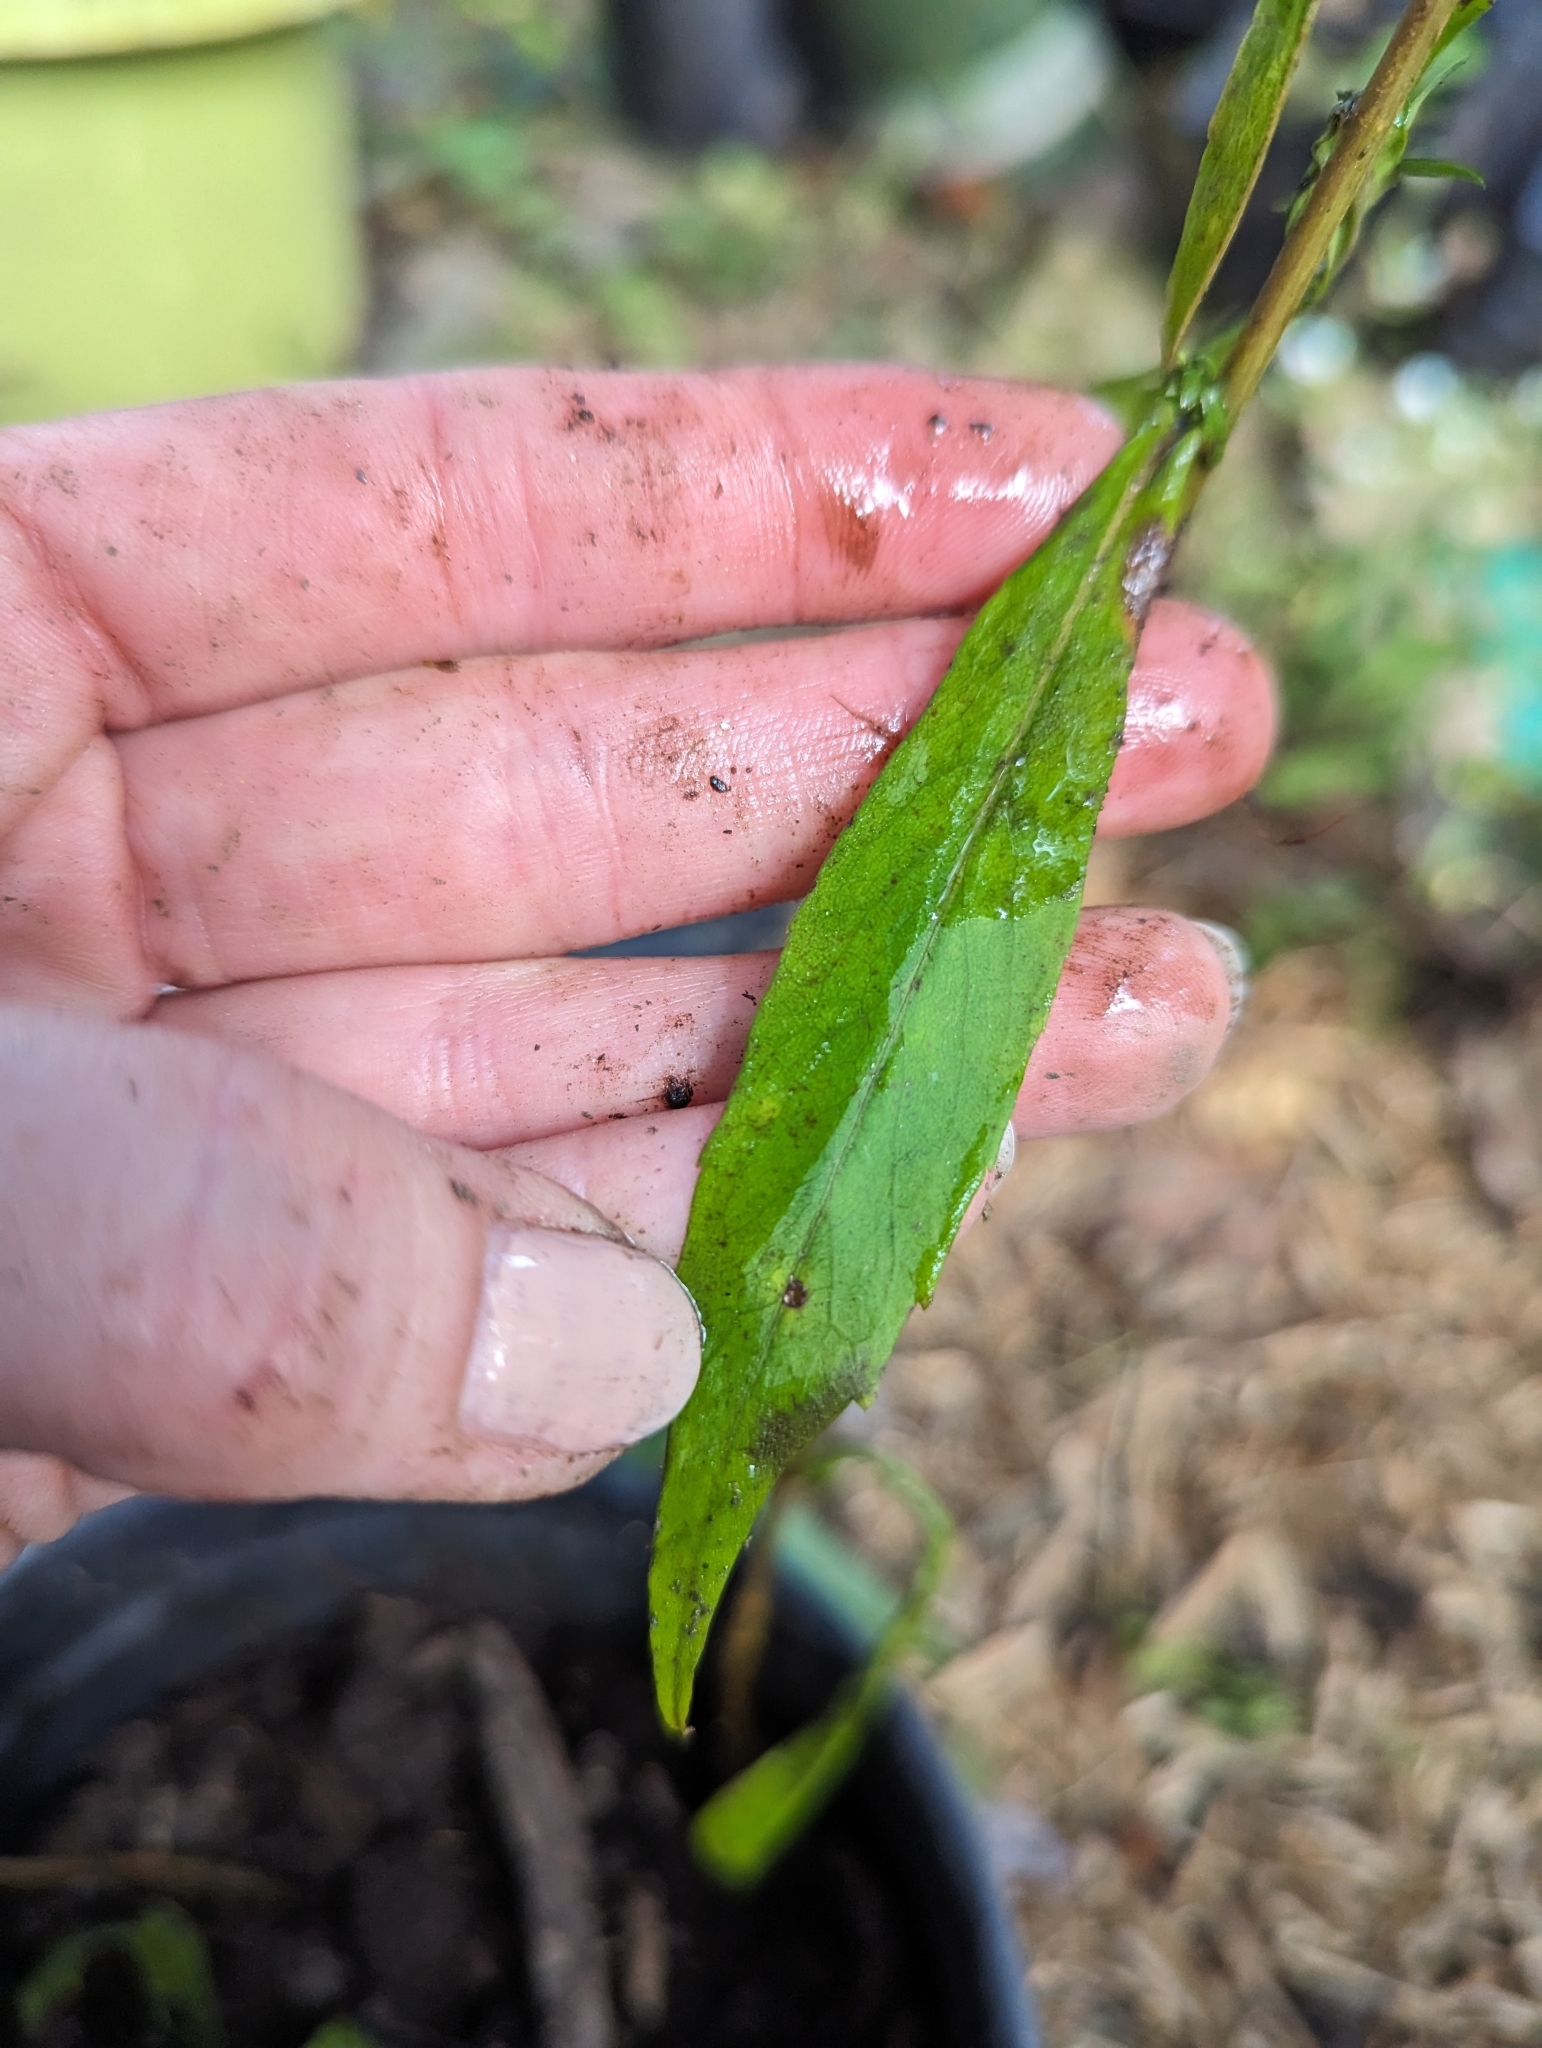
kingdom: Plantae
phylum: Tracheophyta
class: Magnoliopsida
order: Asterales
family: Asteraceae
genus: Symphyotrichum
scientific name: Symphyotrichum lateriflorum
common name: Calico aster
